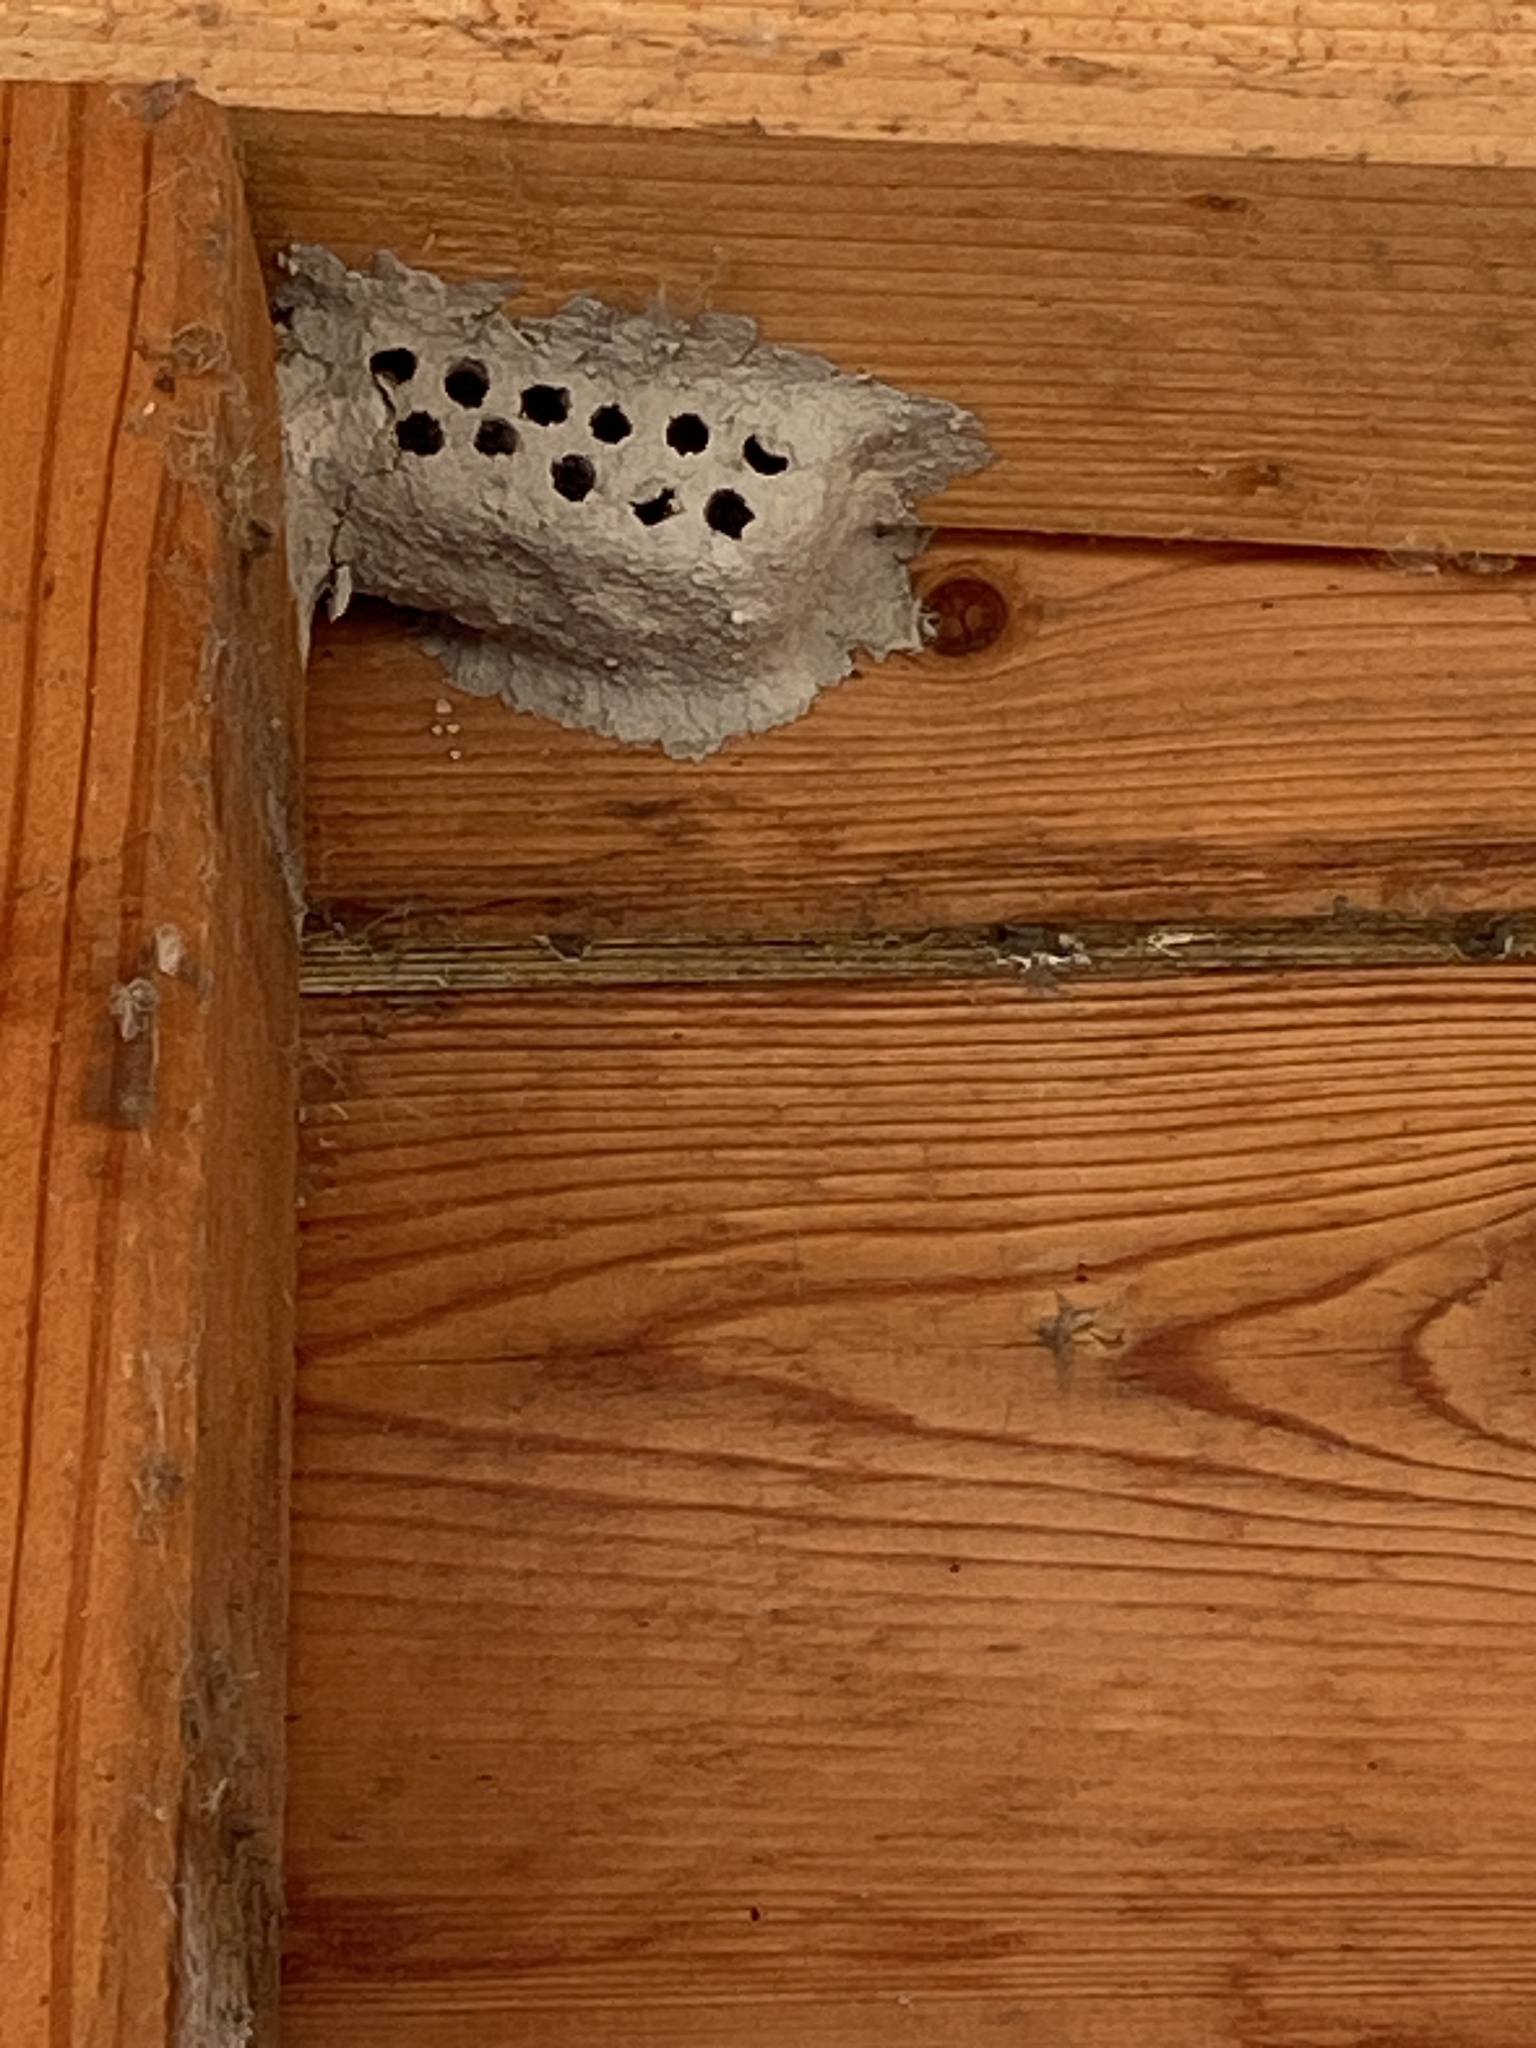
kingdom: Animalia
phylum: Arthropoda
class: Insecta
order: Hymenoptera
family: Sphecidae
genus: Sceliphron
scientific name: Sceliphron
